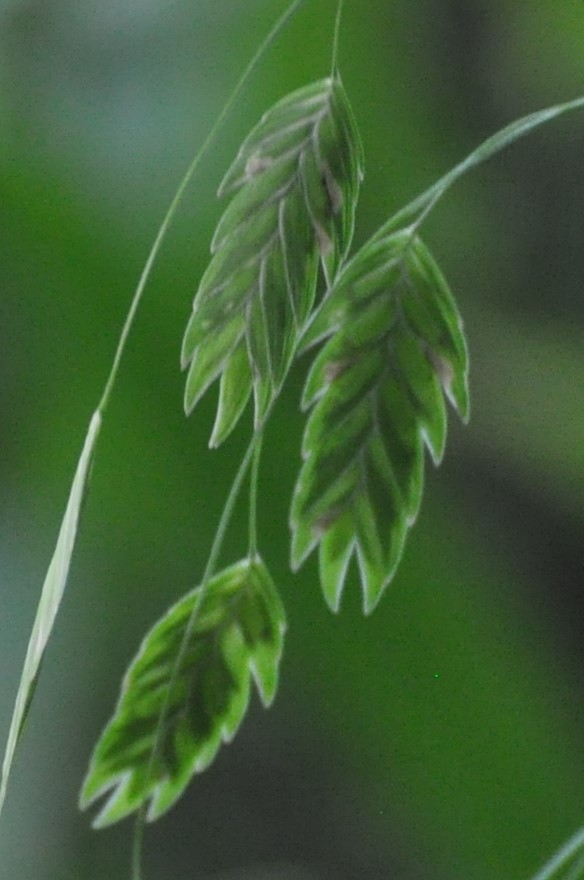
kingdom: Plantae
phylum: Tracheophyta
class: Liliopsida
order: Poales
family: Poaceae
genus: Chasmanthium
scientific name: Chasmanthium latifolium
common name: Broad-leaved chasmanthium
